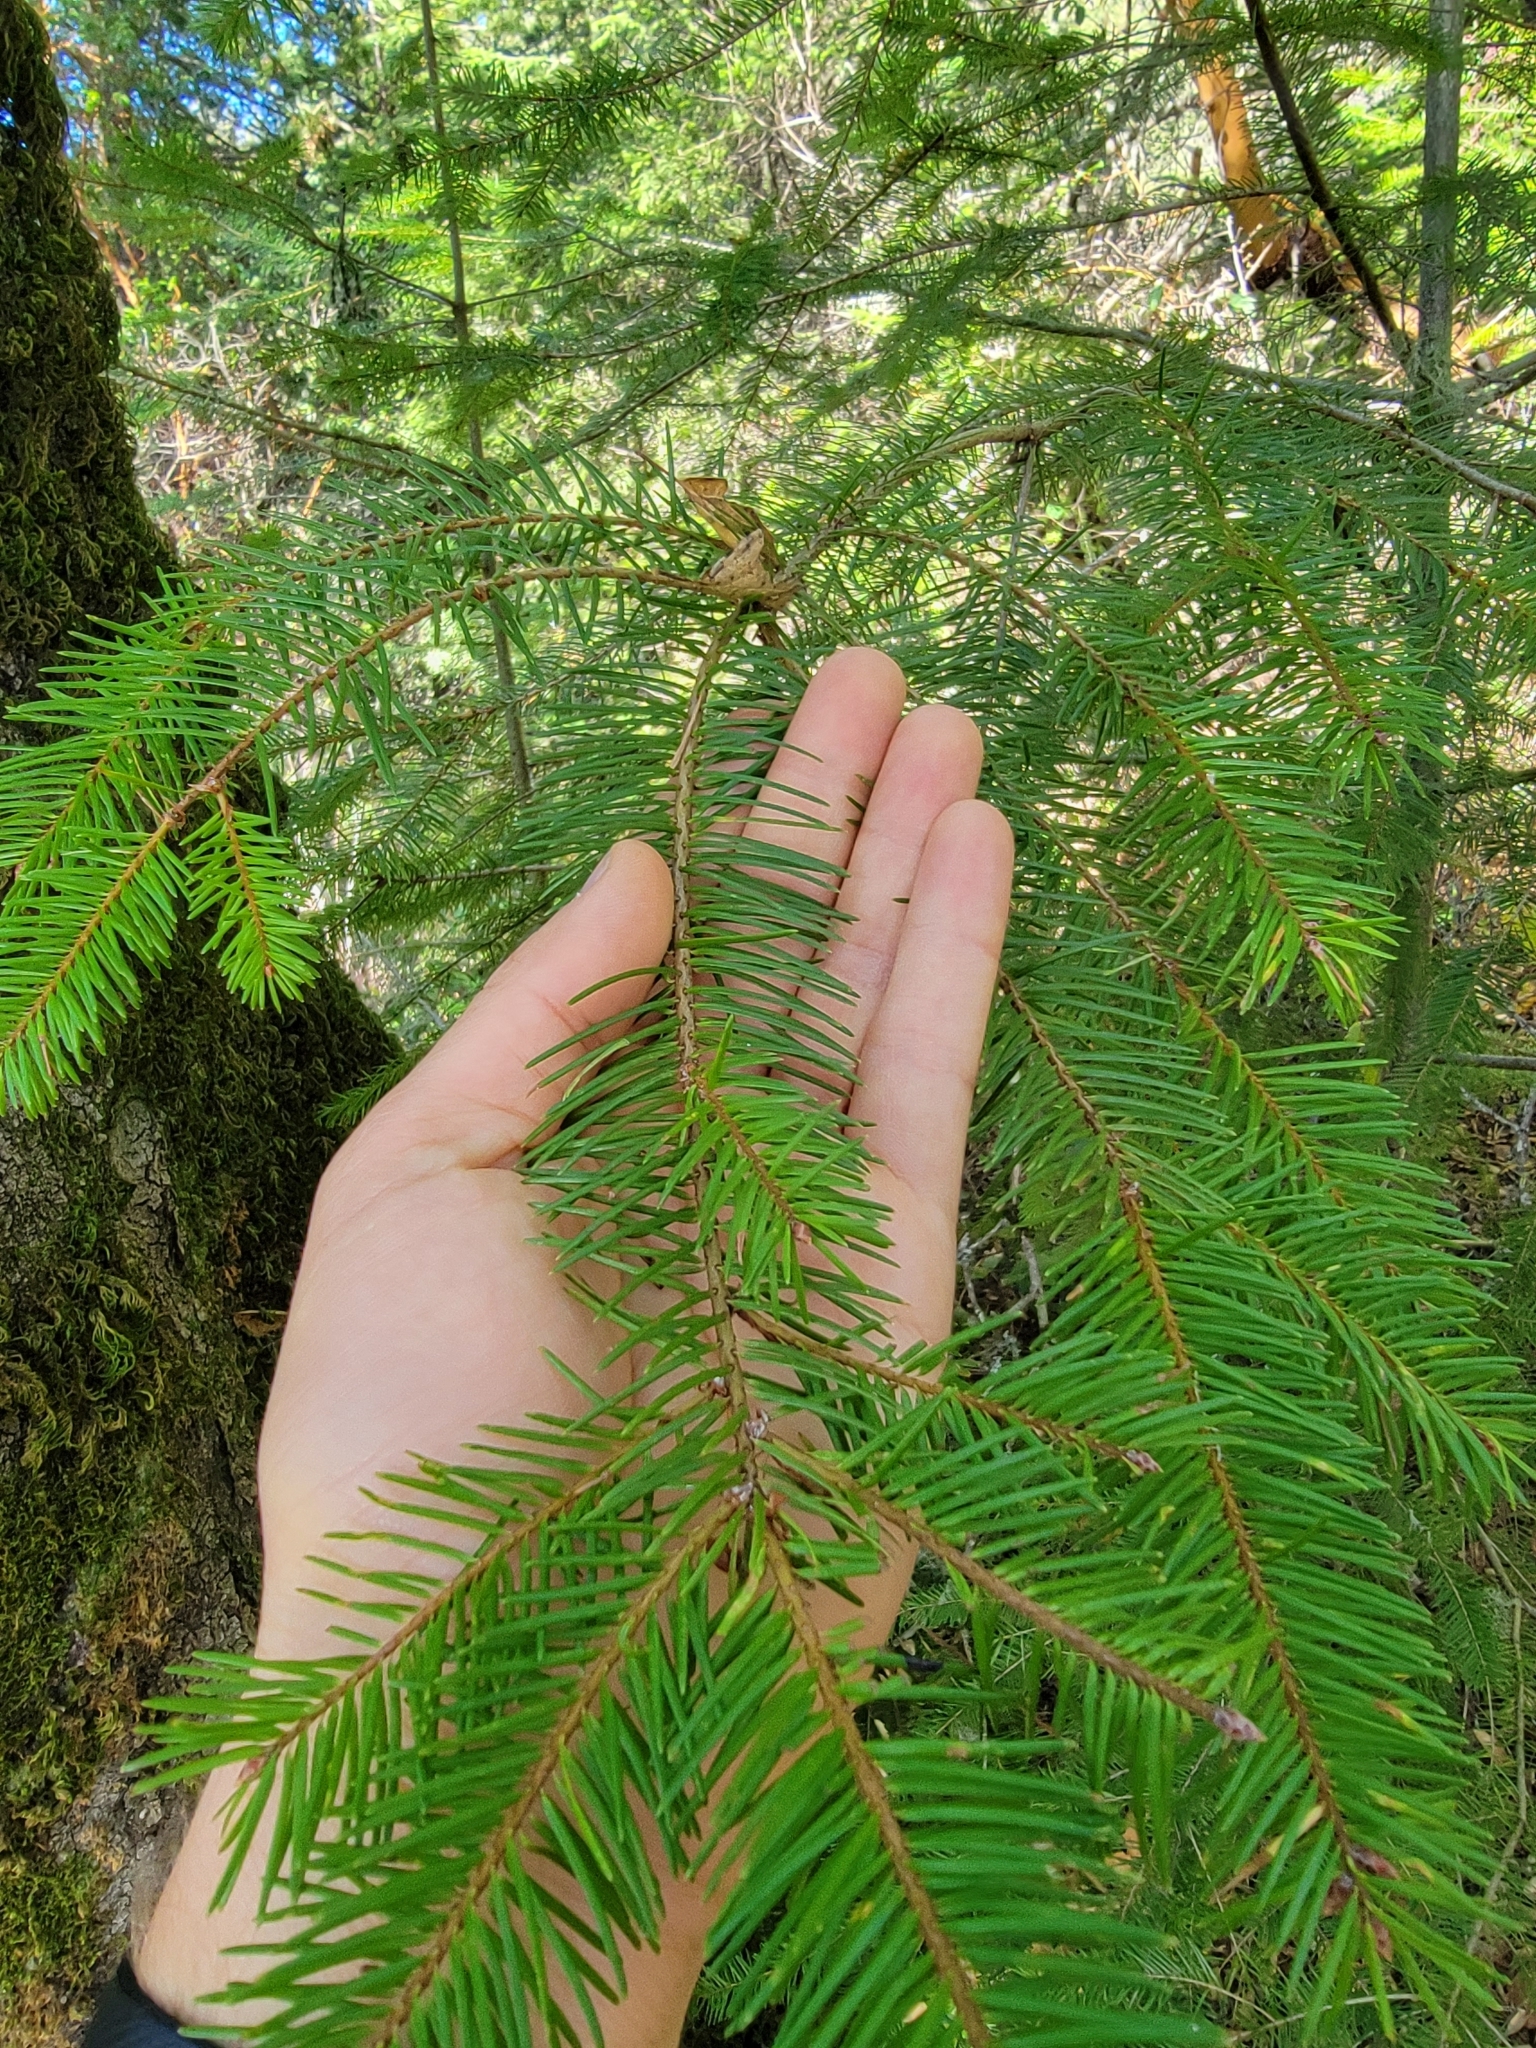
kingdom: Plantae
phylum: Tracheophyta
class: Pinopsida
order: Pinales
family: Pinaceae
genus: Pseudotsuga
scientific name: Pseudotsuga menziesii
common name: Douglas fir
